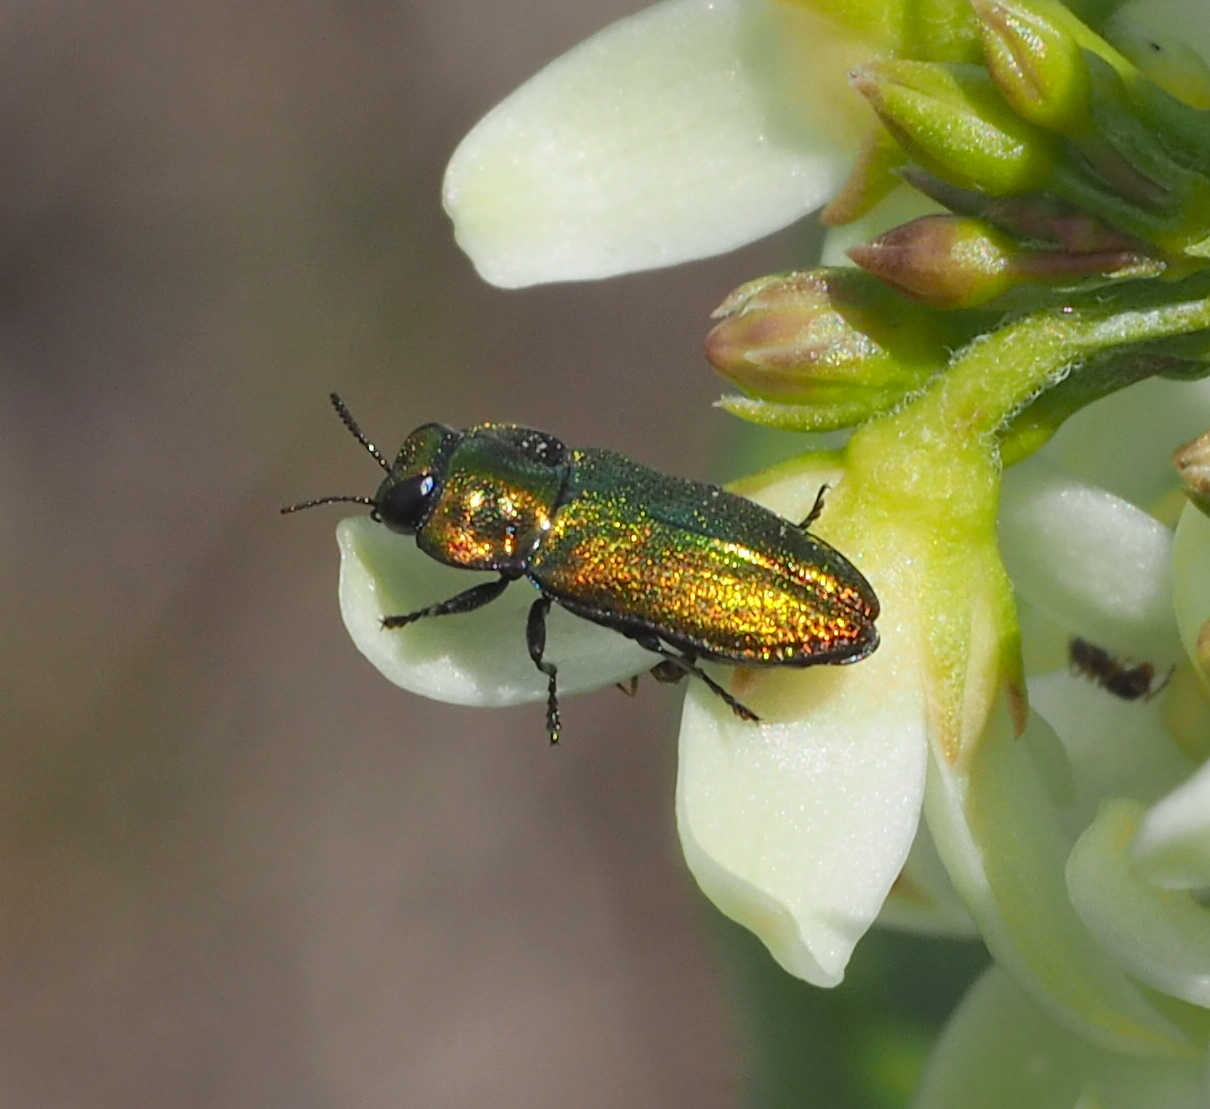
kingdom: Animalia
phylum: Arthropoda
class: Insecta
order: Coleoptera
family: Buprestidae
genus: Anthaxia
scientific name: Anthaxia fulgurans
